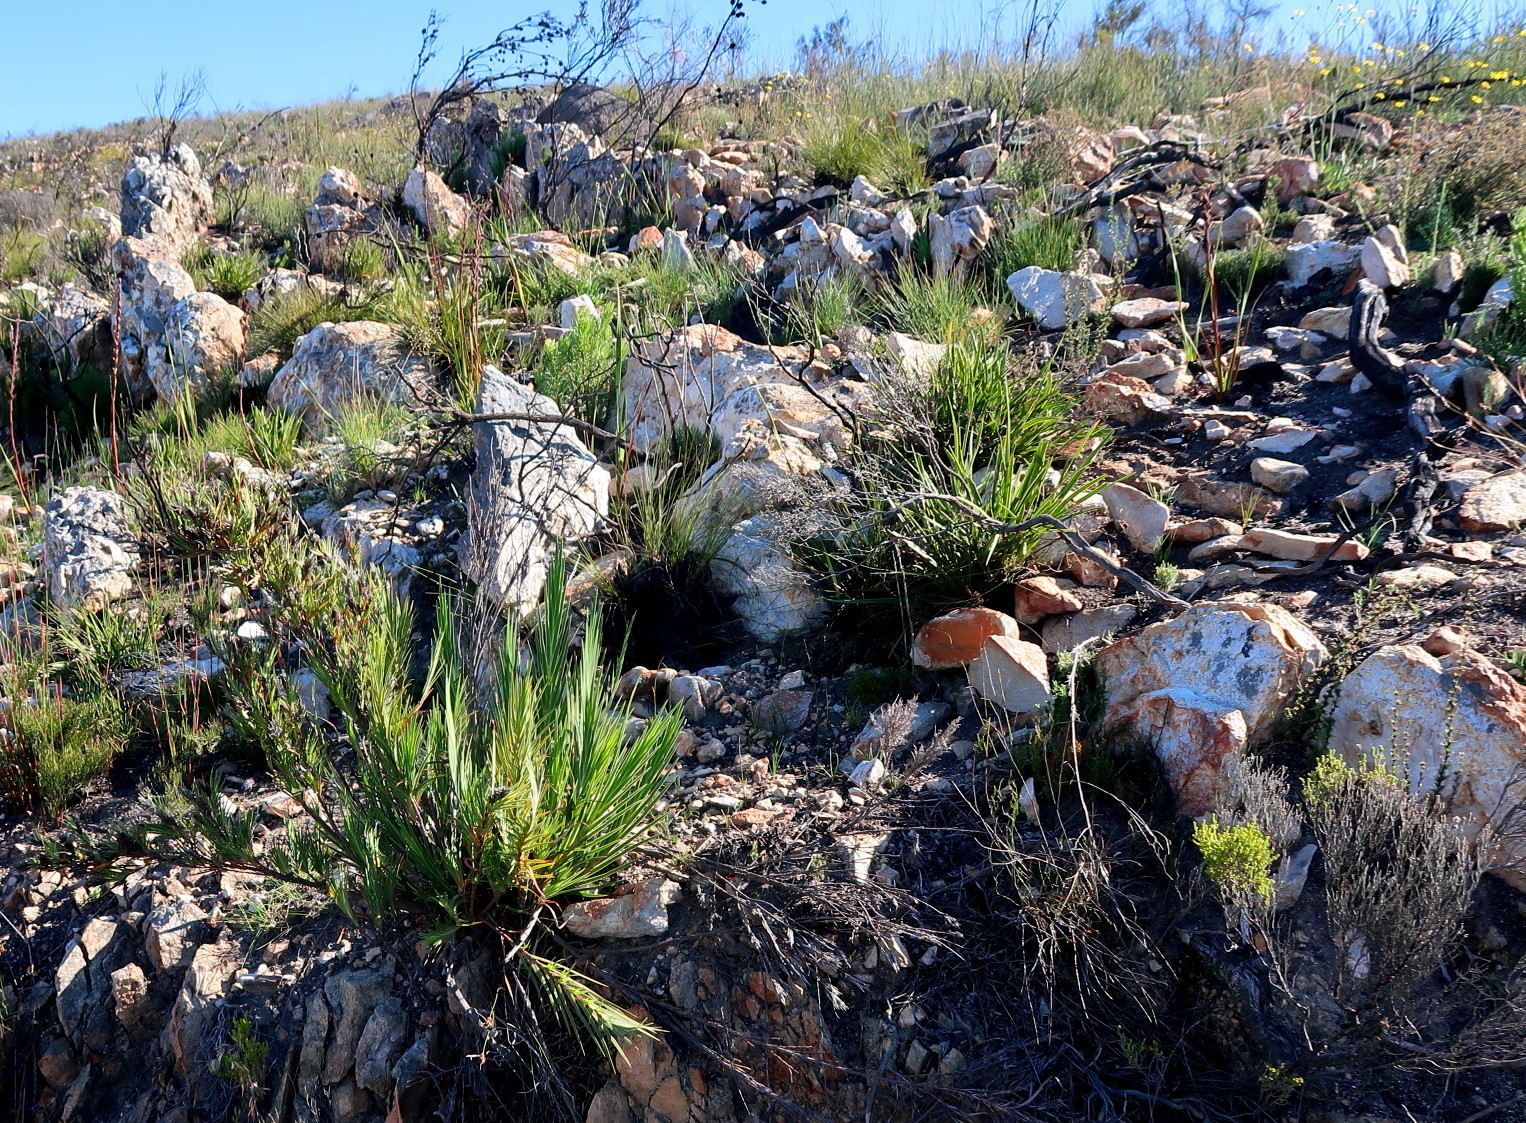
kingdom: Plantae
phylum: Tracheophyta
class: Liliopsida
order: Asparagales
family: Iridaceae
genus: Nivenia
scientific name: Nivenia inaequalis
